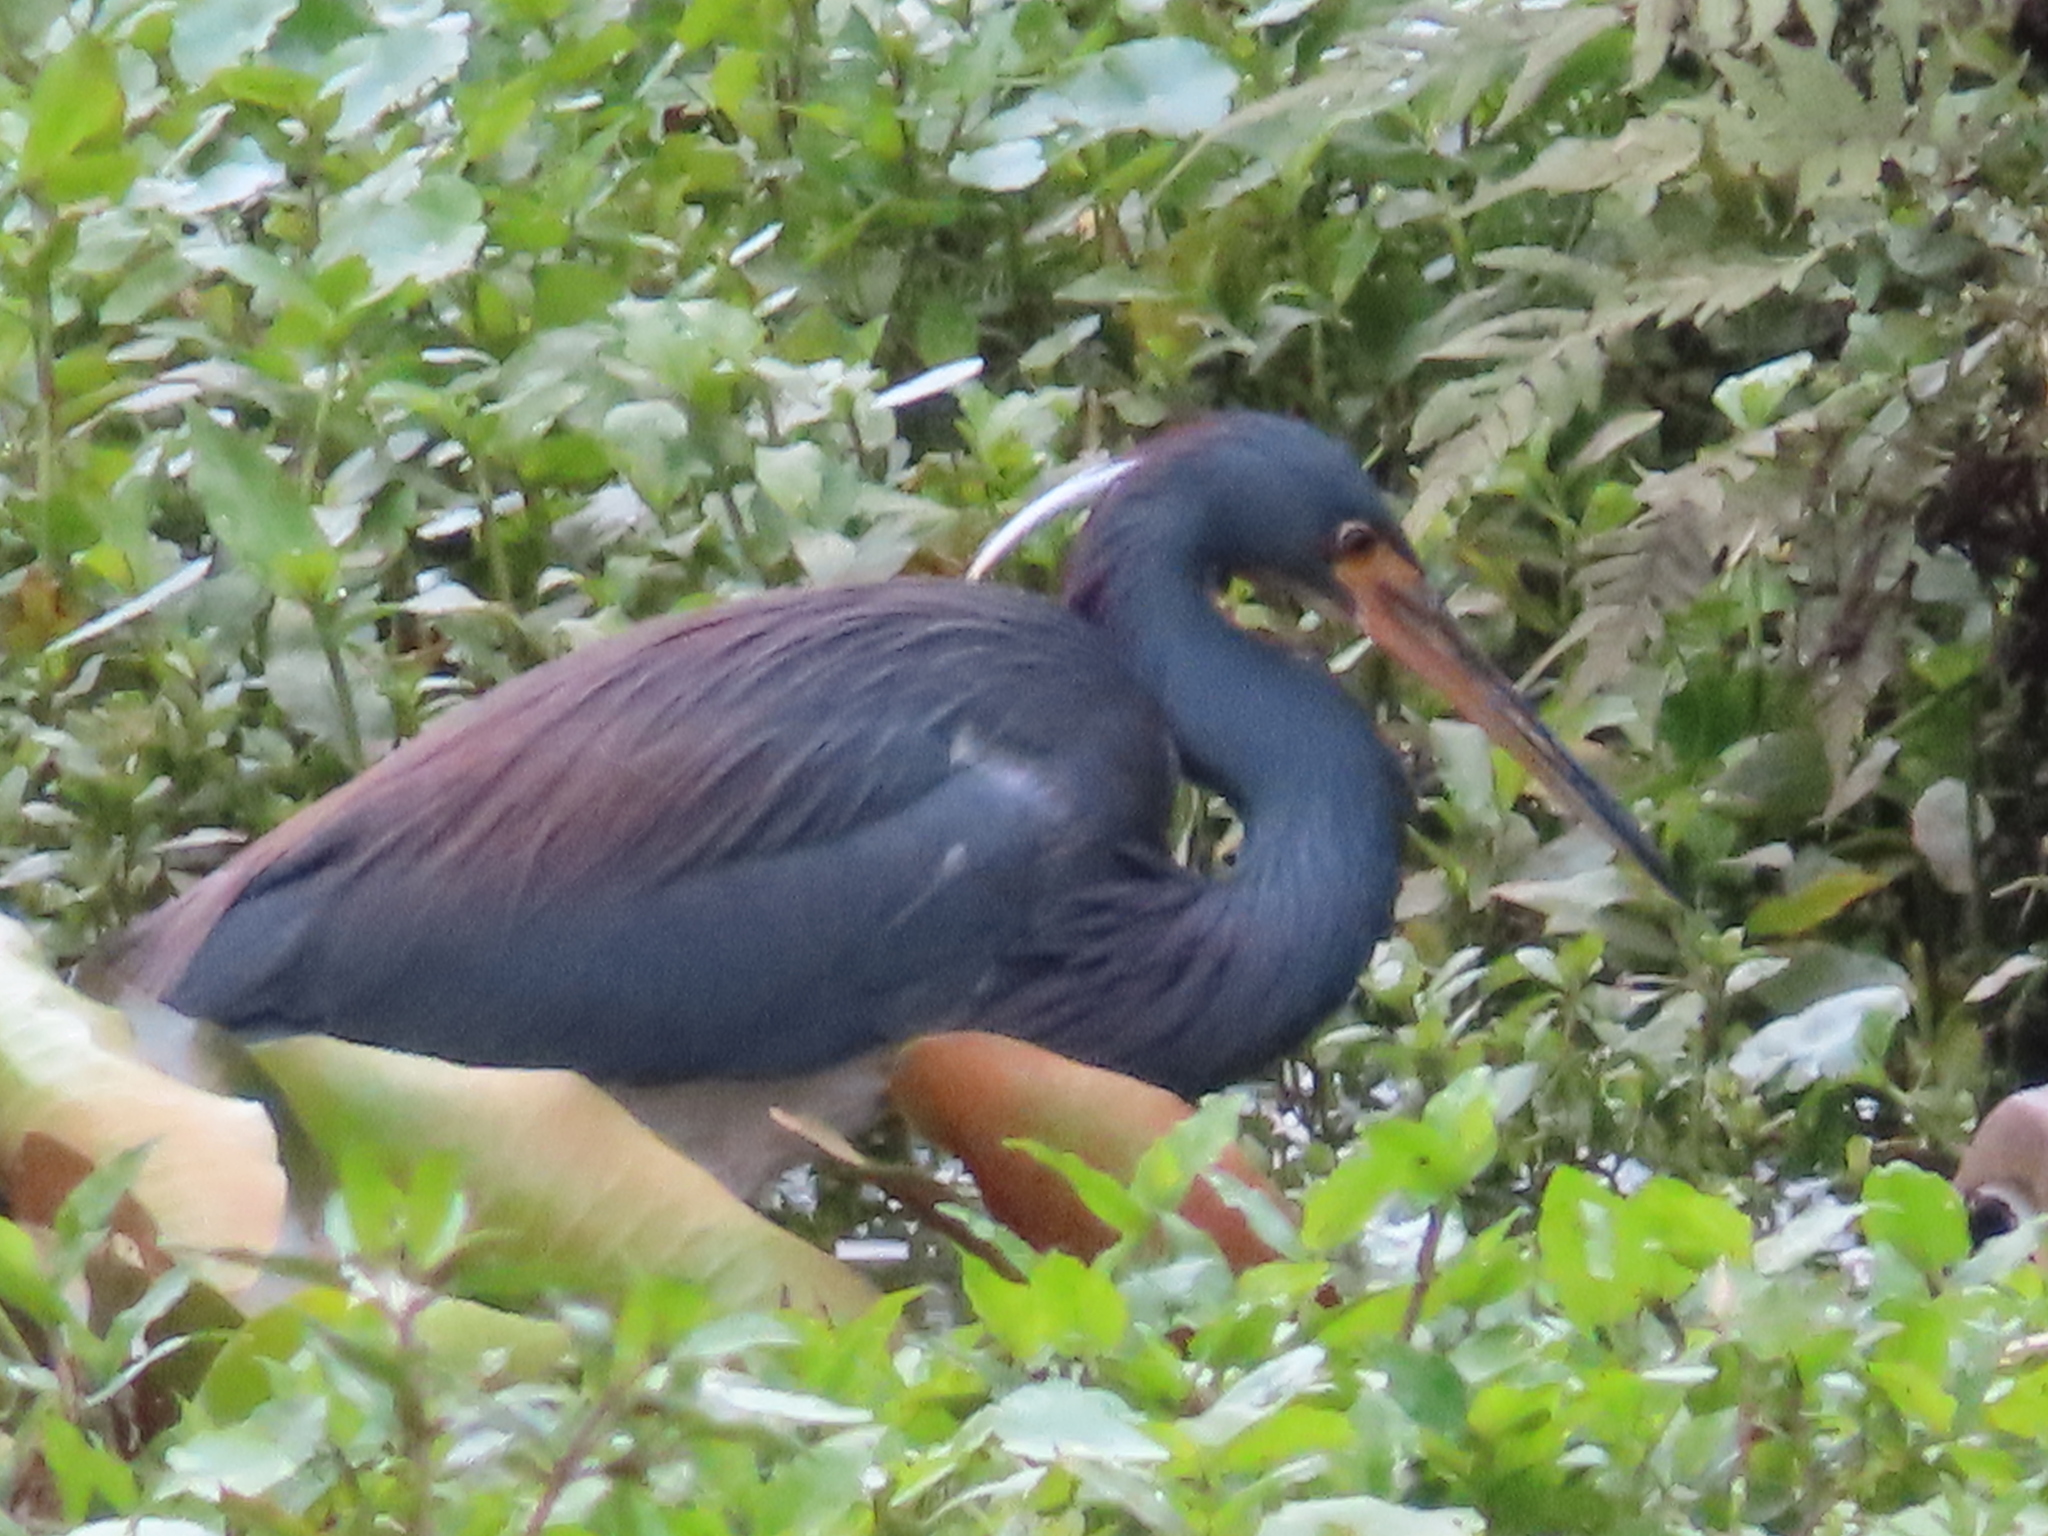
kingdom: Animalia
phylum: Chordata
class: Aves
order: Pelecaniformes
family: Ardeidae
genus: Egretta
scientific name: Egretta tricolor
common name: Tricolored heron
